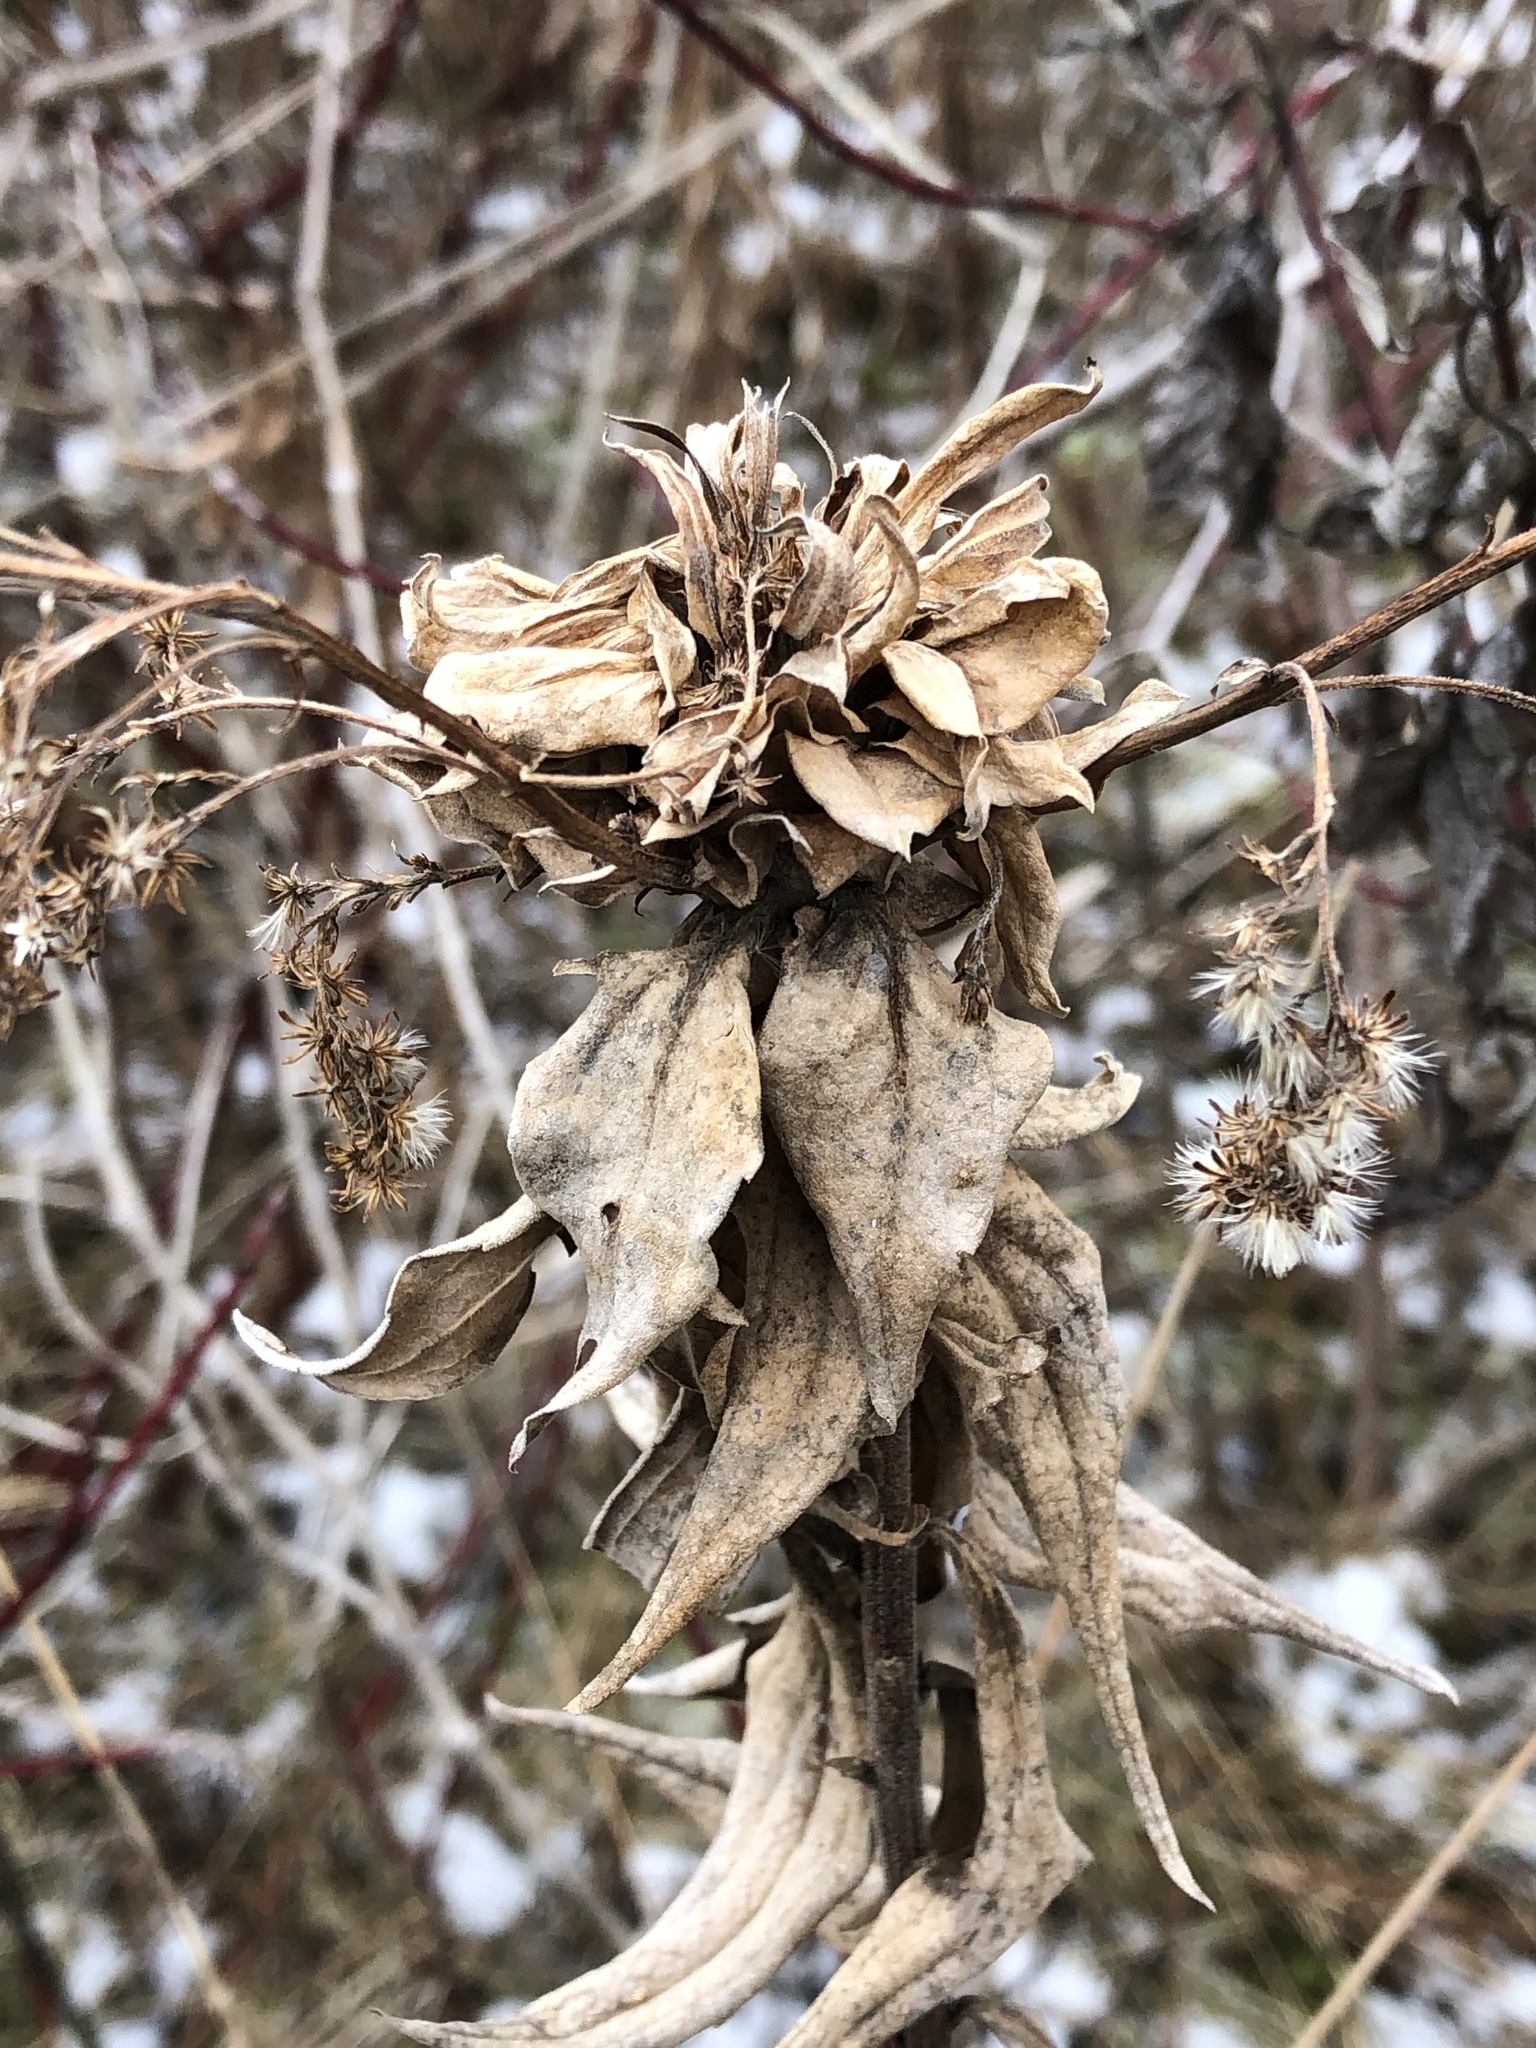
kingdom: Animalia
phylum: Arthropoda
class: Insecta
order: Diptera
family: Cecidomyiidae
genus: Rhopalomyia
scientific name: Rhopalomyia solidaginis
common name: Goldenrod bunch gall midge
